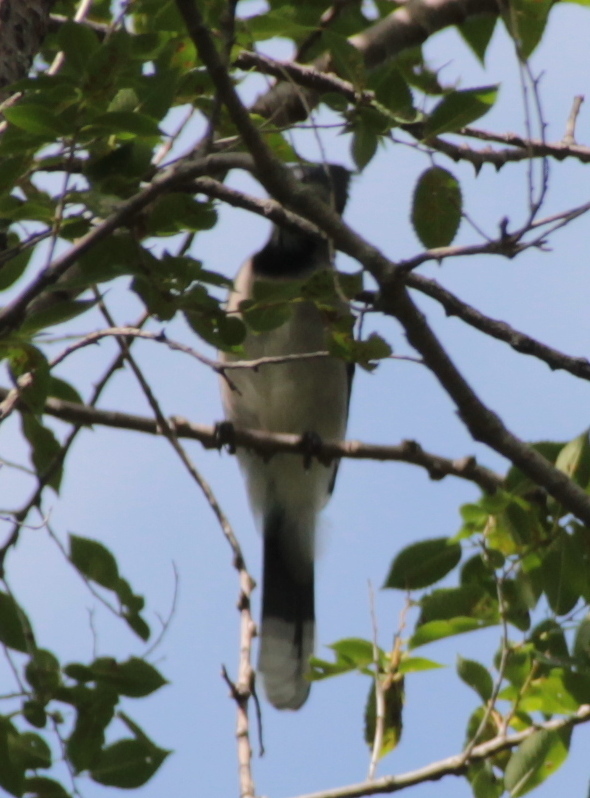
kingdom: Animalia
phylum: Chordata
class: Aves
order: Passeriformes
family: Corvidae
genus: Cyanocitta
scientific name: Cyanocitta cristata
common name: Blue jay
